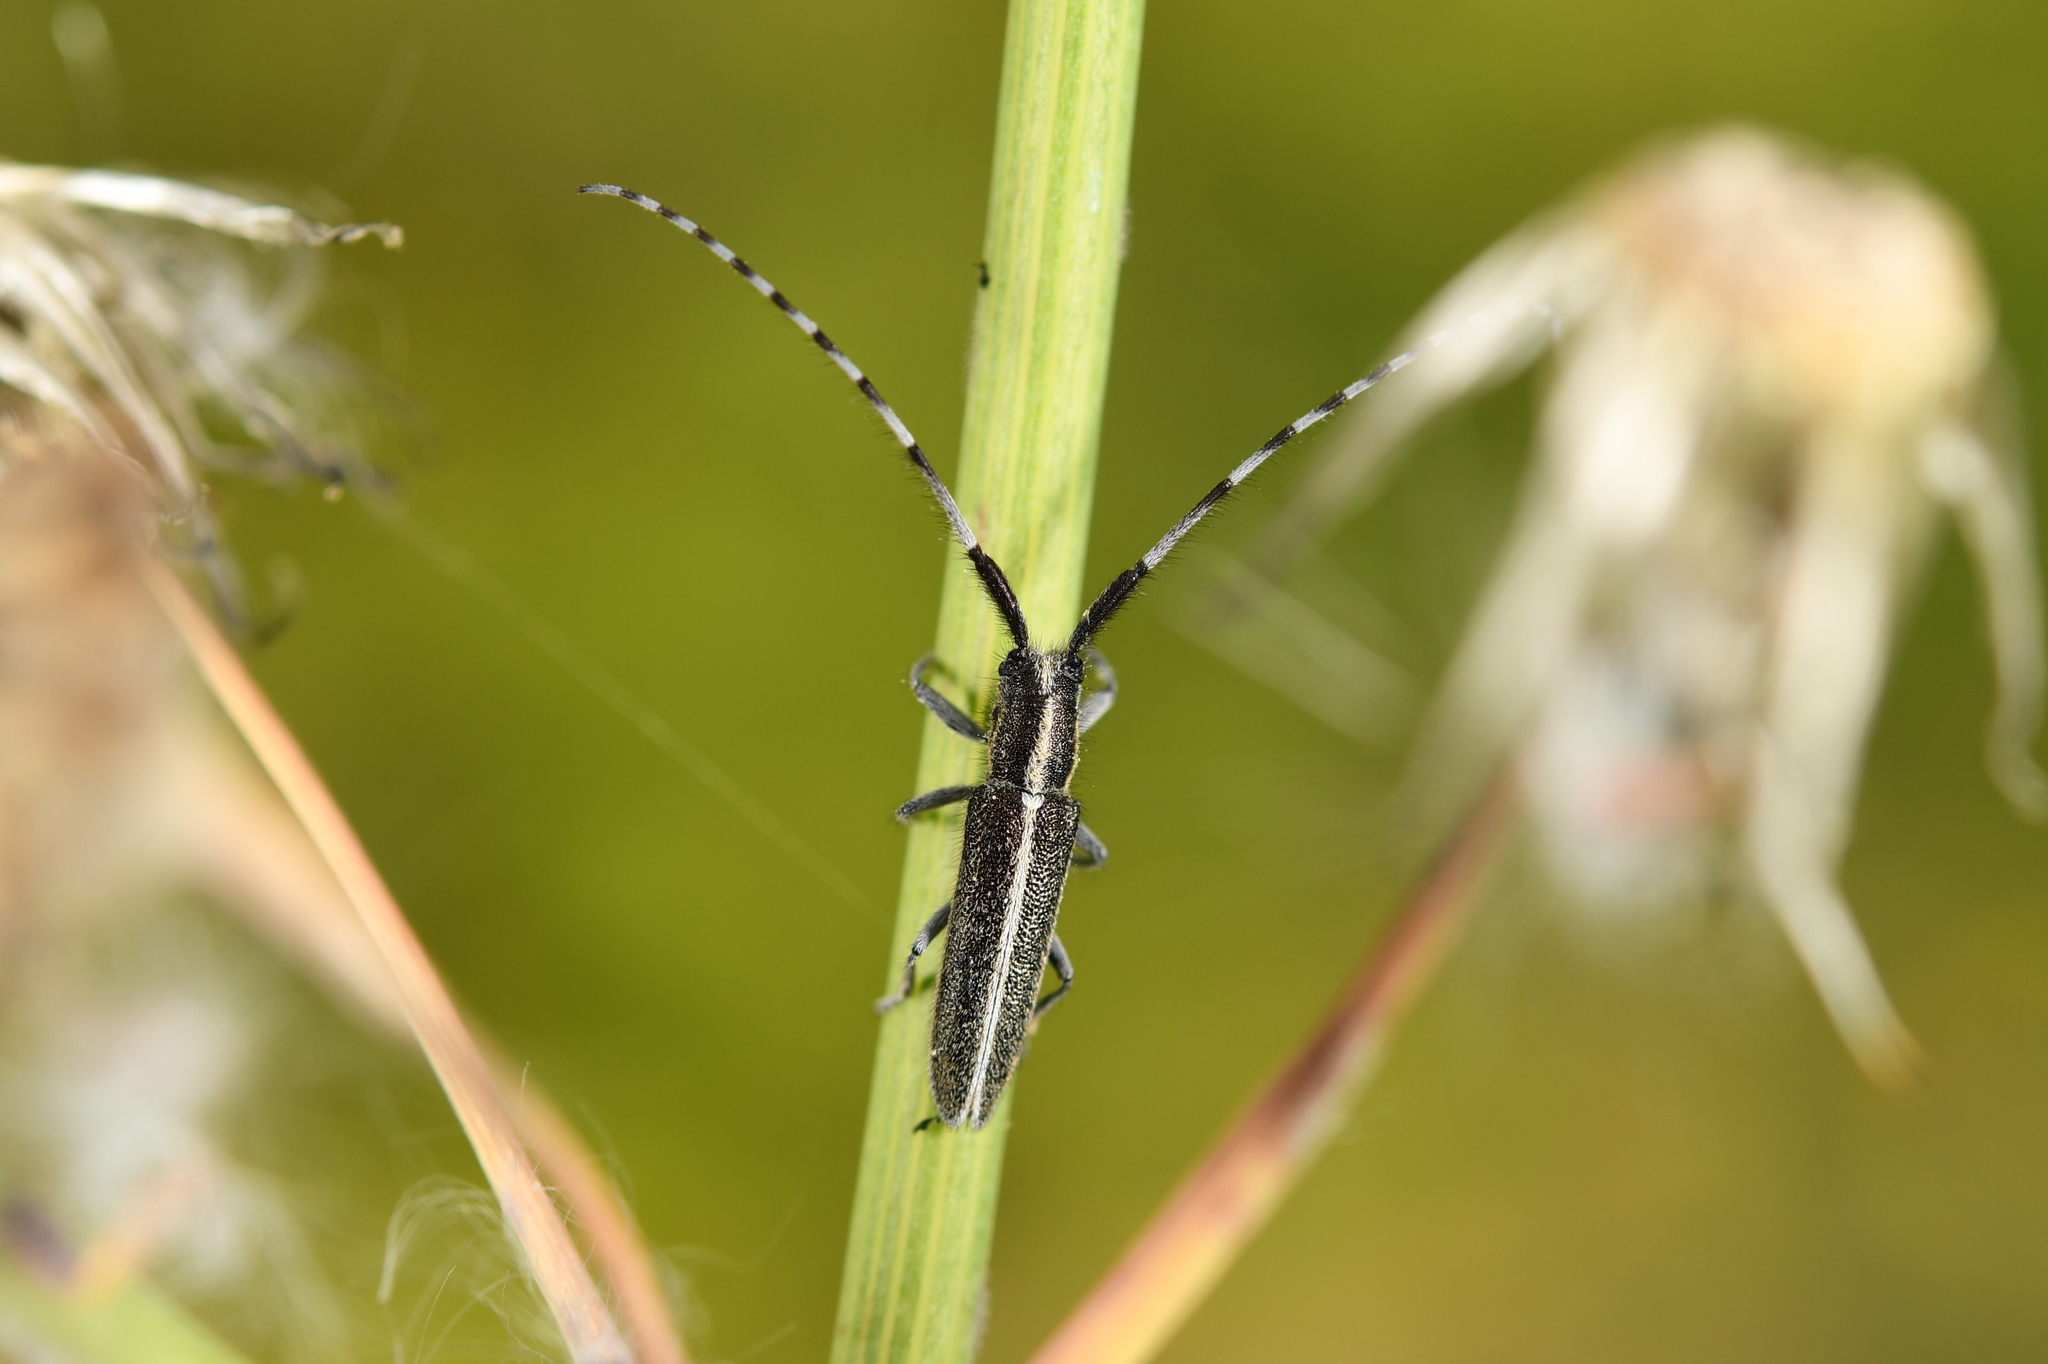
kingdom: Animalia
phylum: Arthropoda
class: Insecta
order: Coleoptera
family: Cerambycidae
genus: Agapanthia
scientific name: Agapanthia cardui
